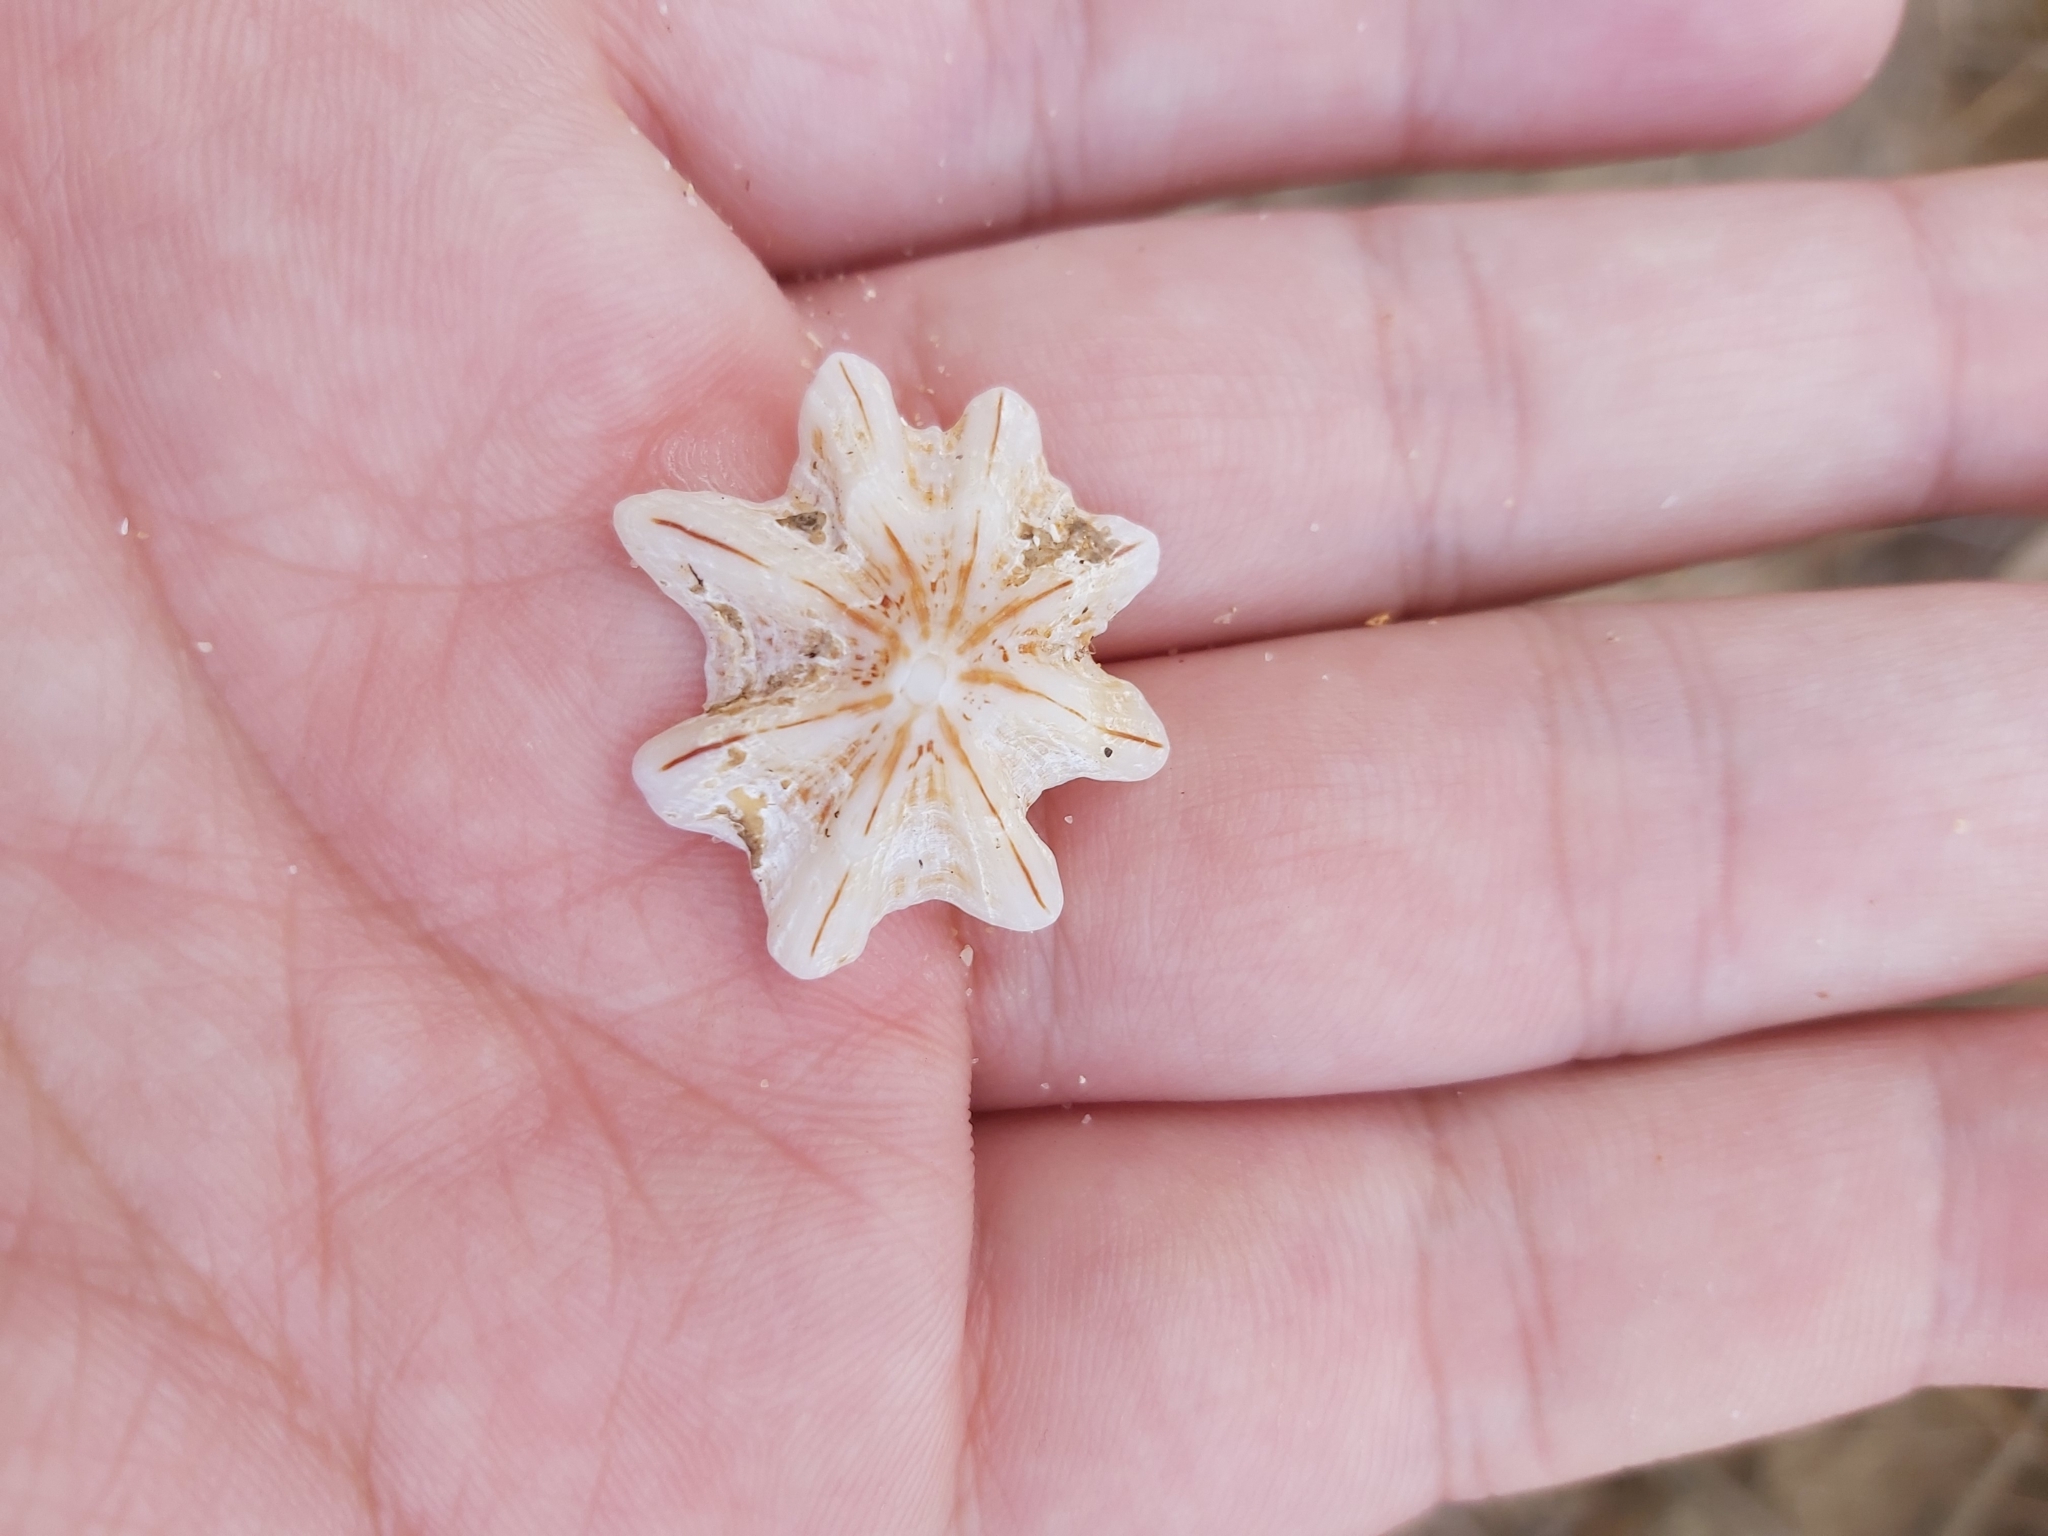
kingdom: Animalia
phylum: Mollusca
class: Gastropoda
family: Patellidae
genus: Scutellastra
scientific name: Scutellastra chapmani
